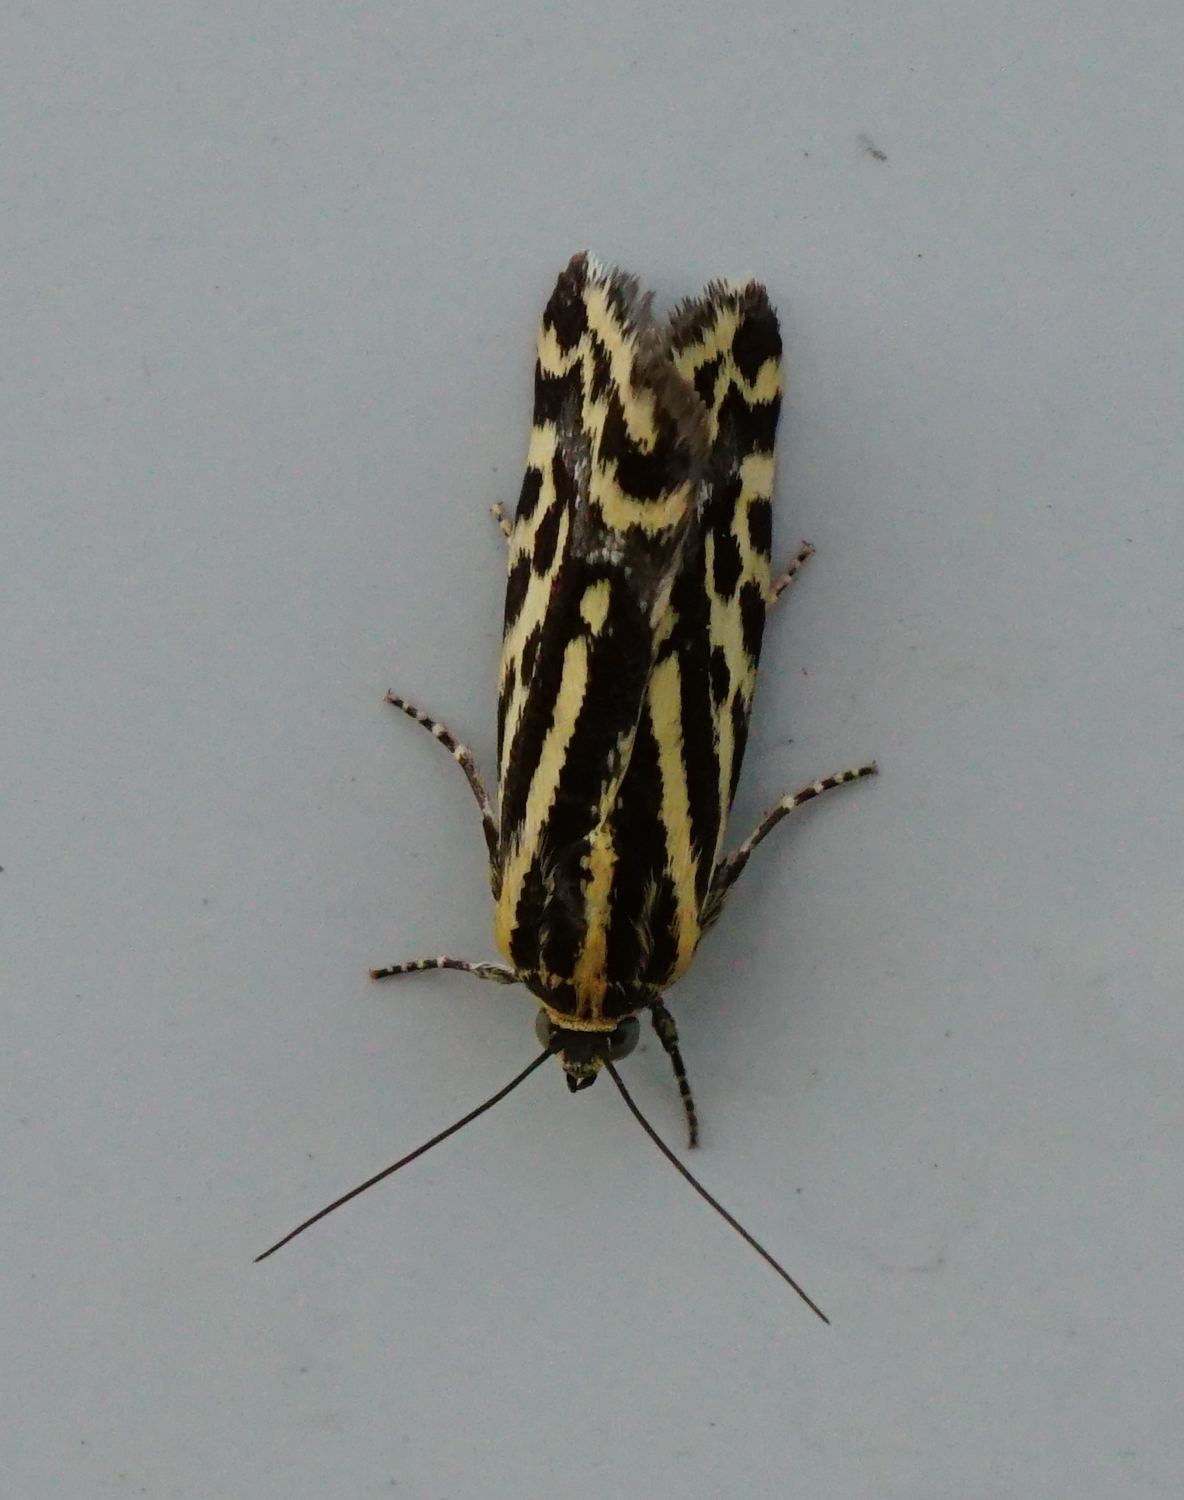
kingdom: Animalia
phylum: Arthropoda
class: Insecta
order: Lepidoptera
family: Noctuidae
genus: Acontia
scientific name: Acontia trabealis
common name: Spotted sulphur
